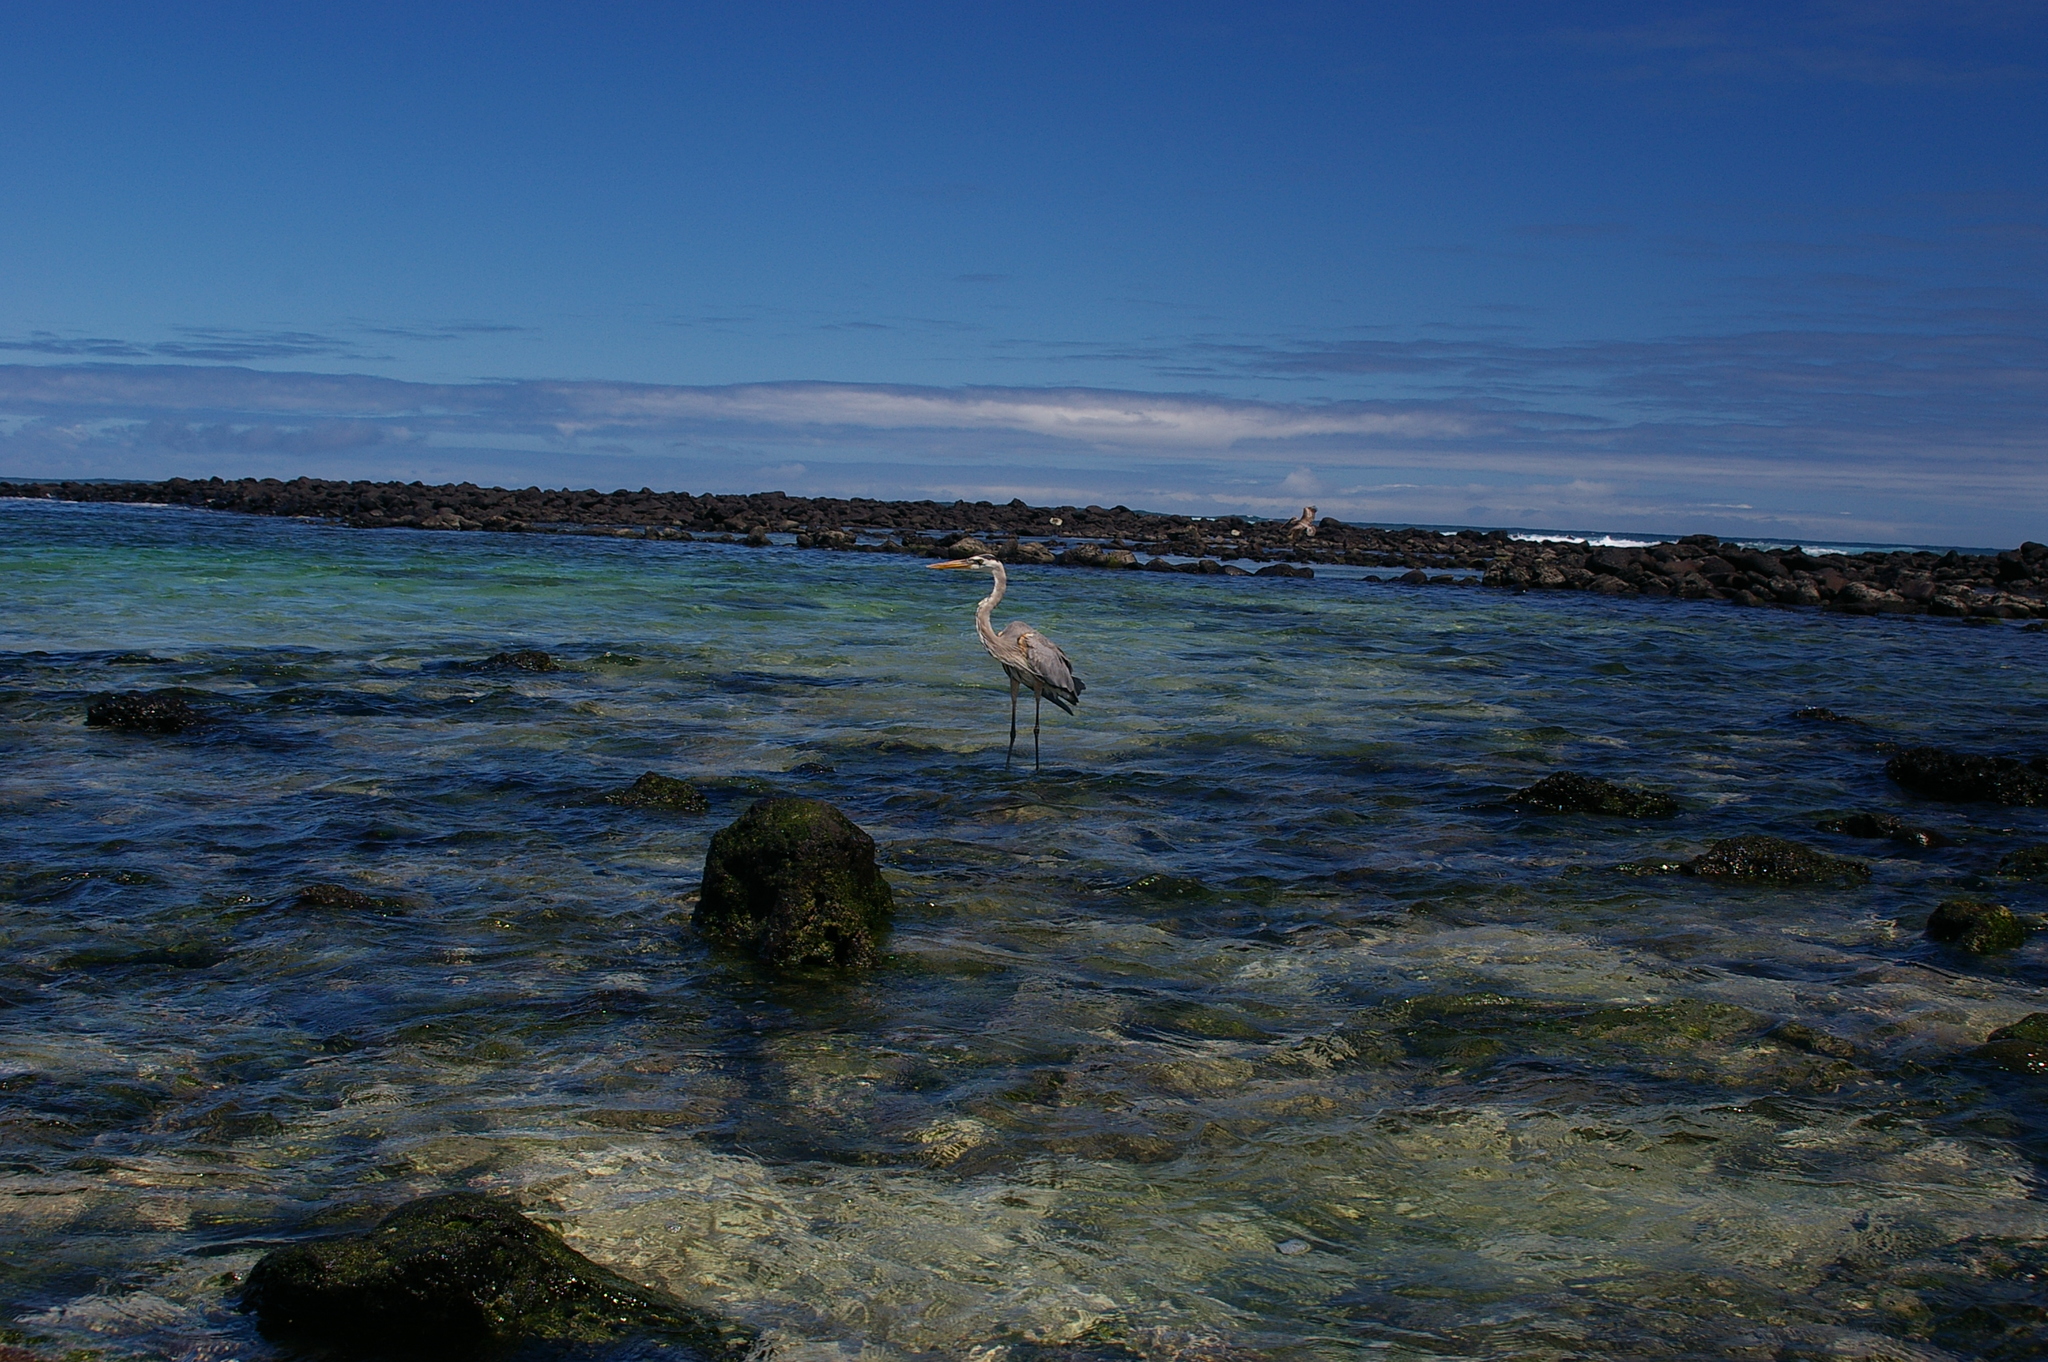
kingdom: Animalia
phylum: Chordata
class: Aves
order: Pelecaniformes
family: Ardeidae
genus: Ardea
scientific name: Ardea herodias
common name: Great blue heron
